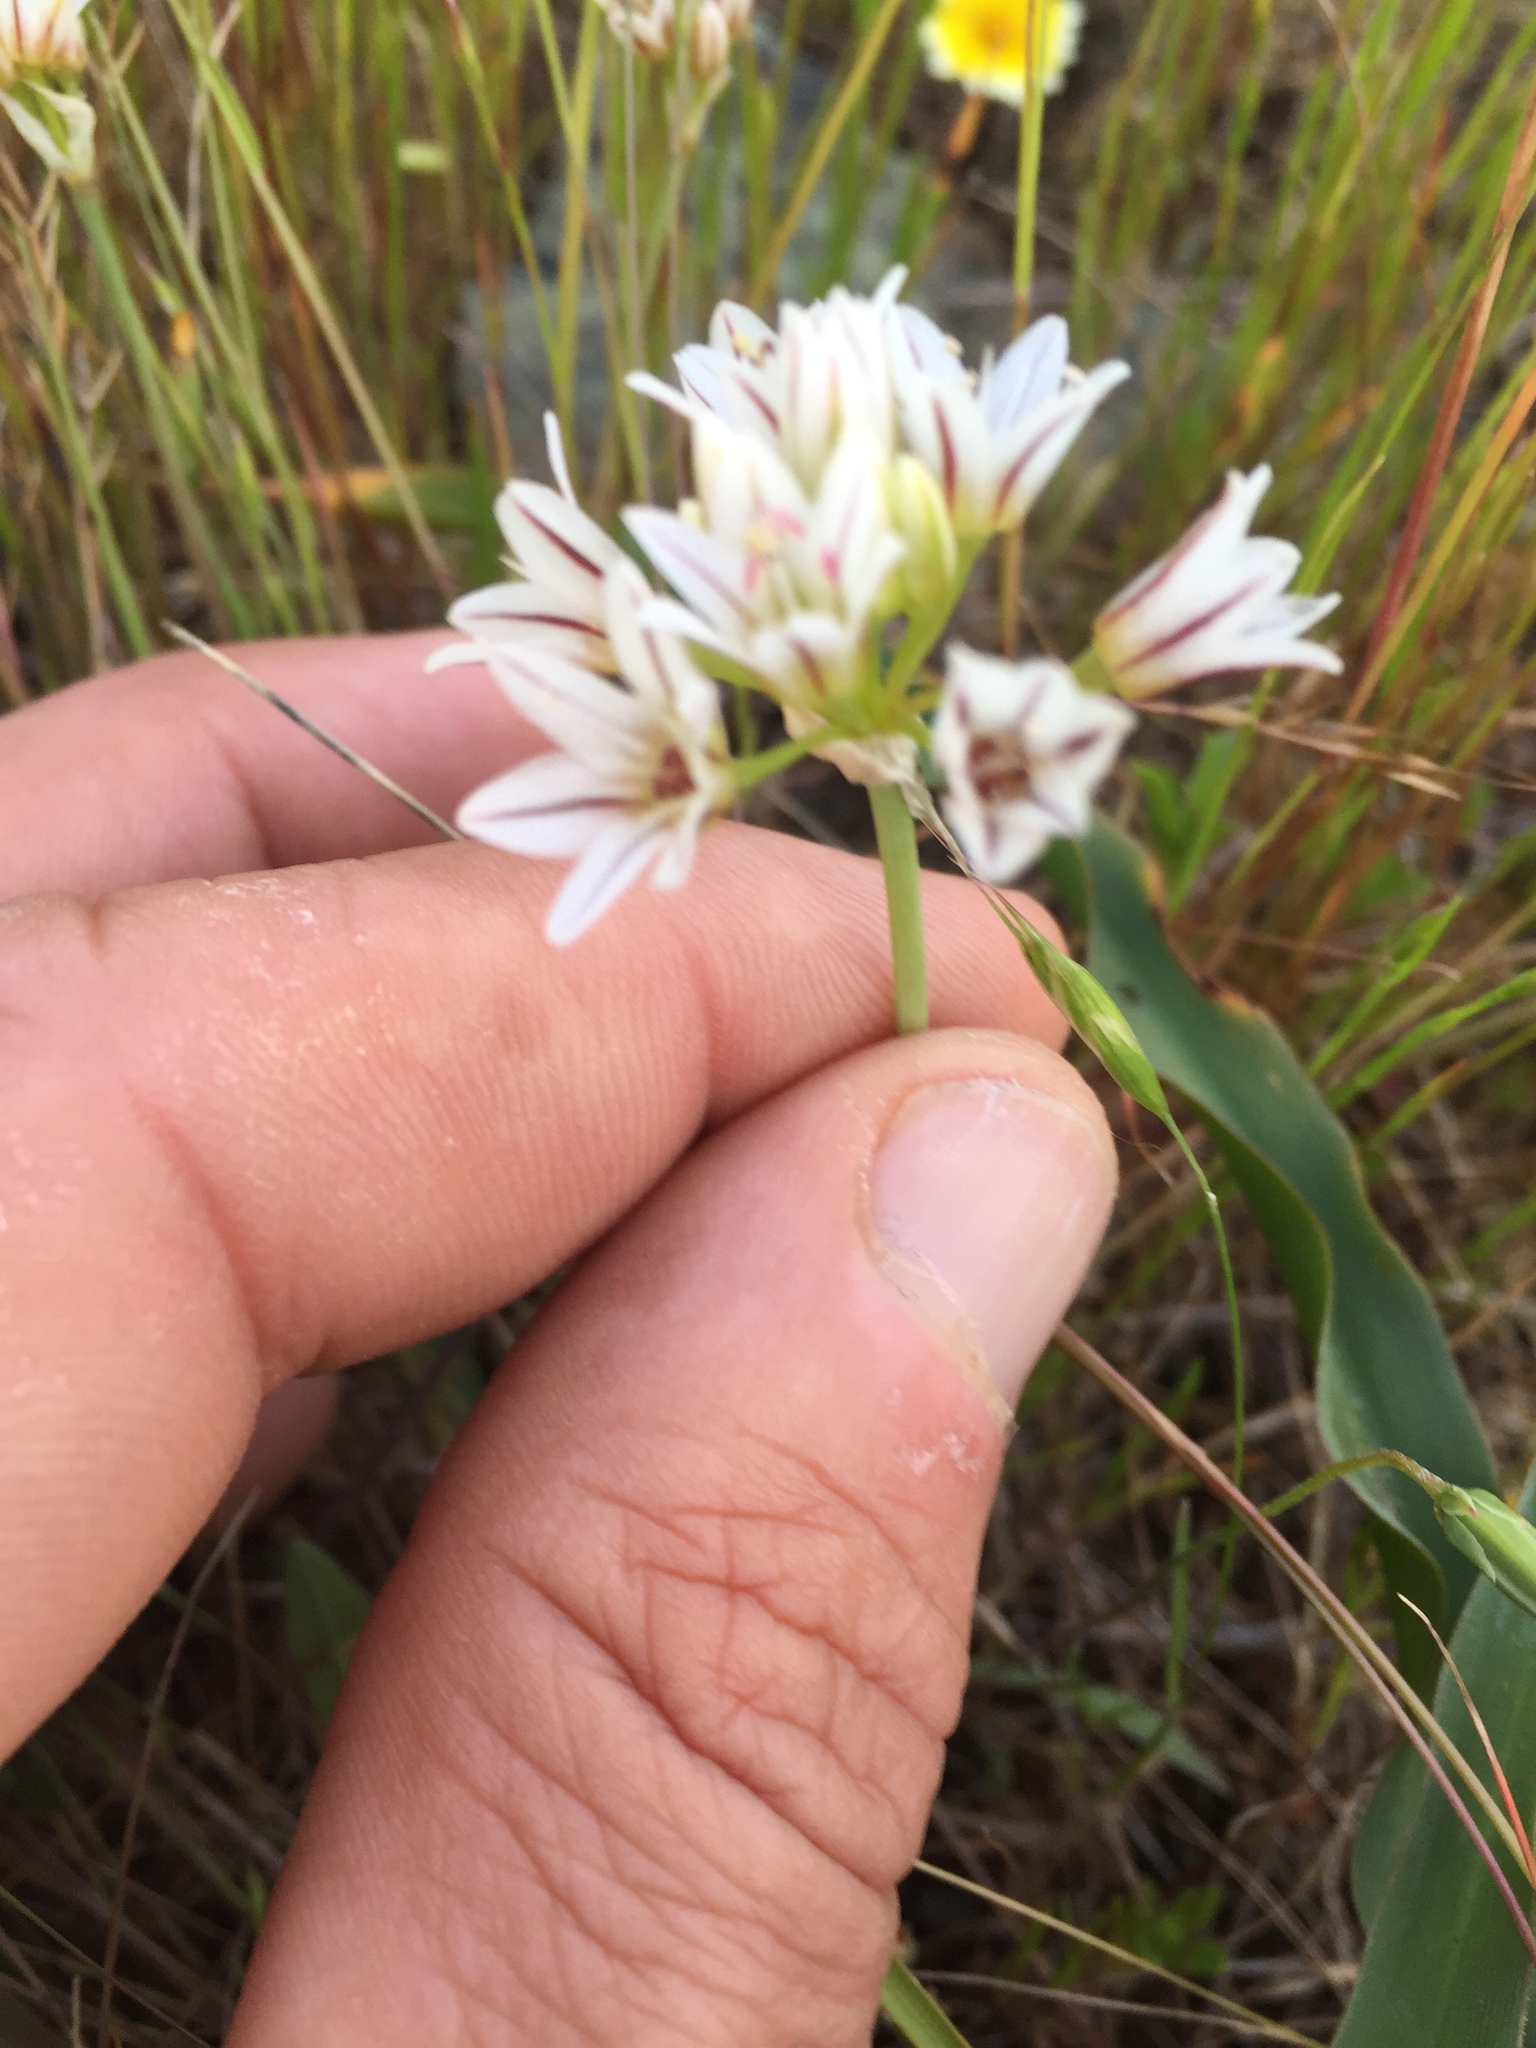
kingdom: Plantae
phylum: Tracheophyta
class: Liliopsida
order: Asparagales
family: Amaryllidaceae
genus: Allium
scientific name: Allium lacunosum
